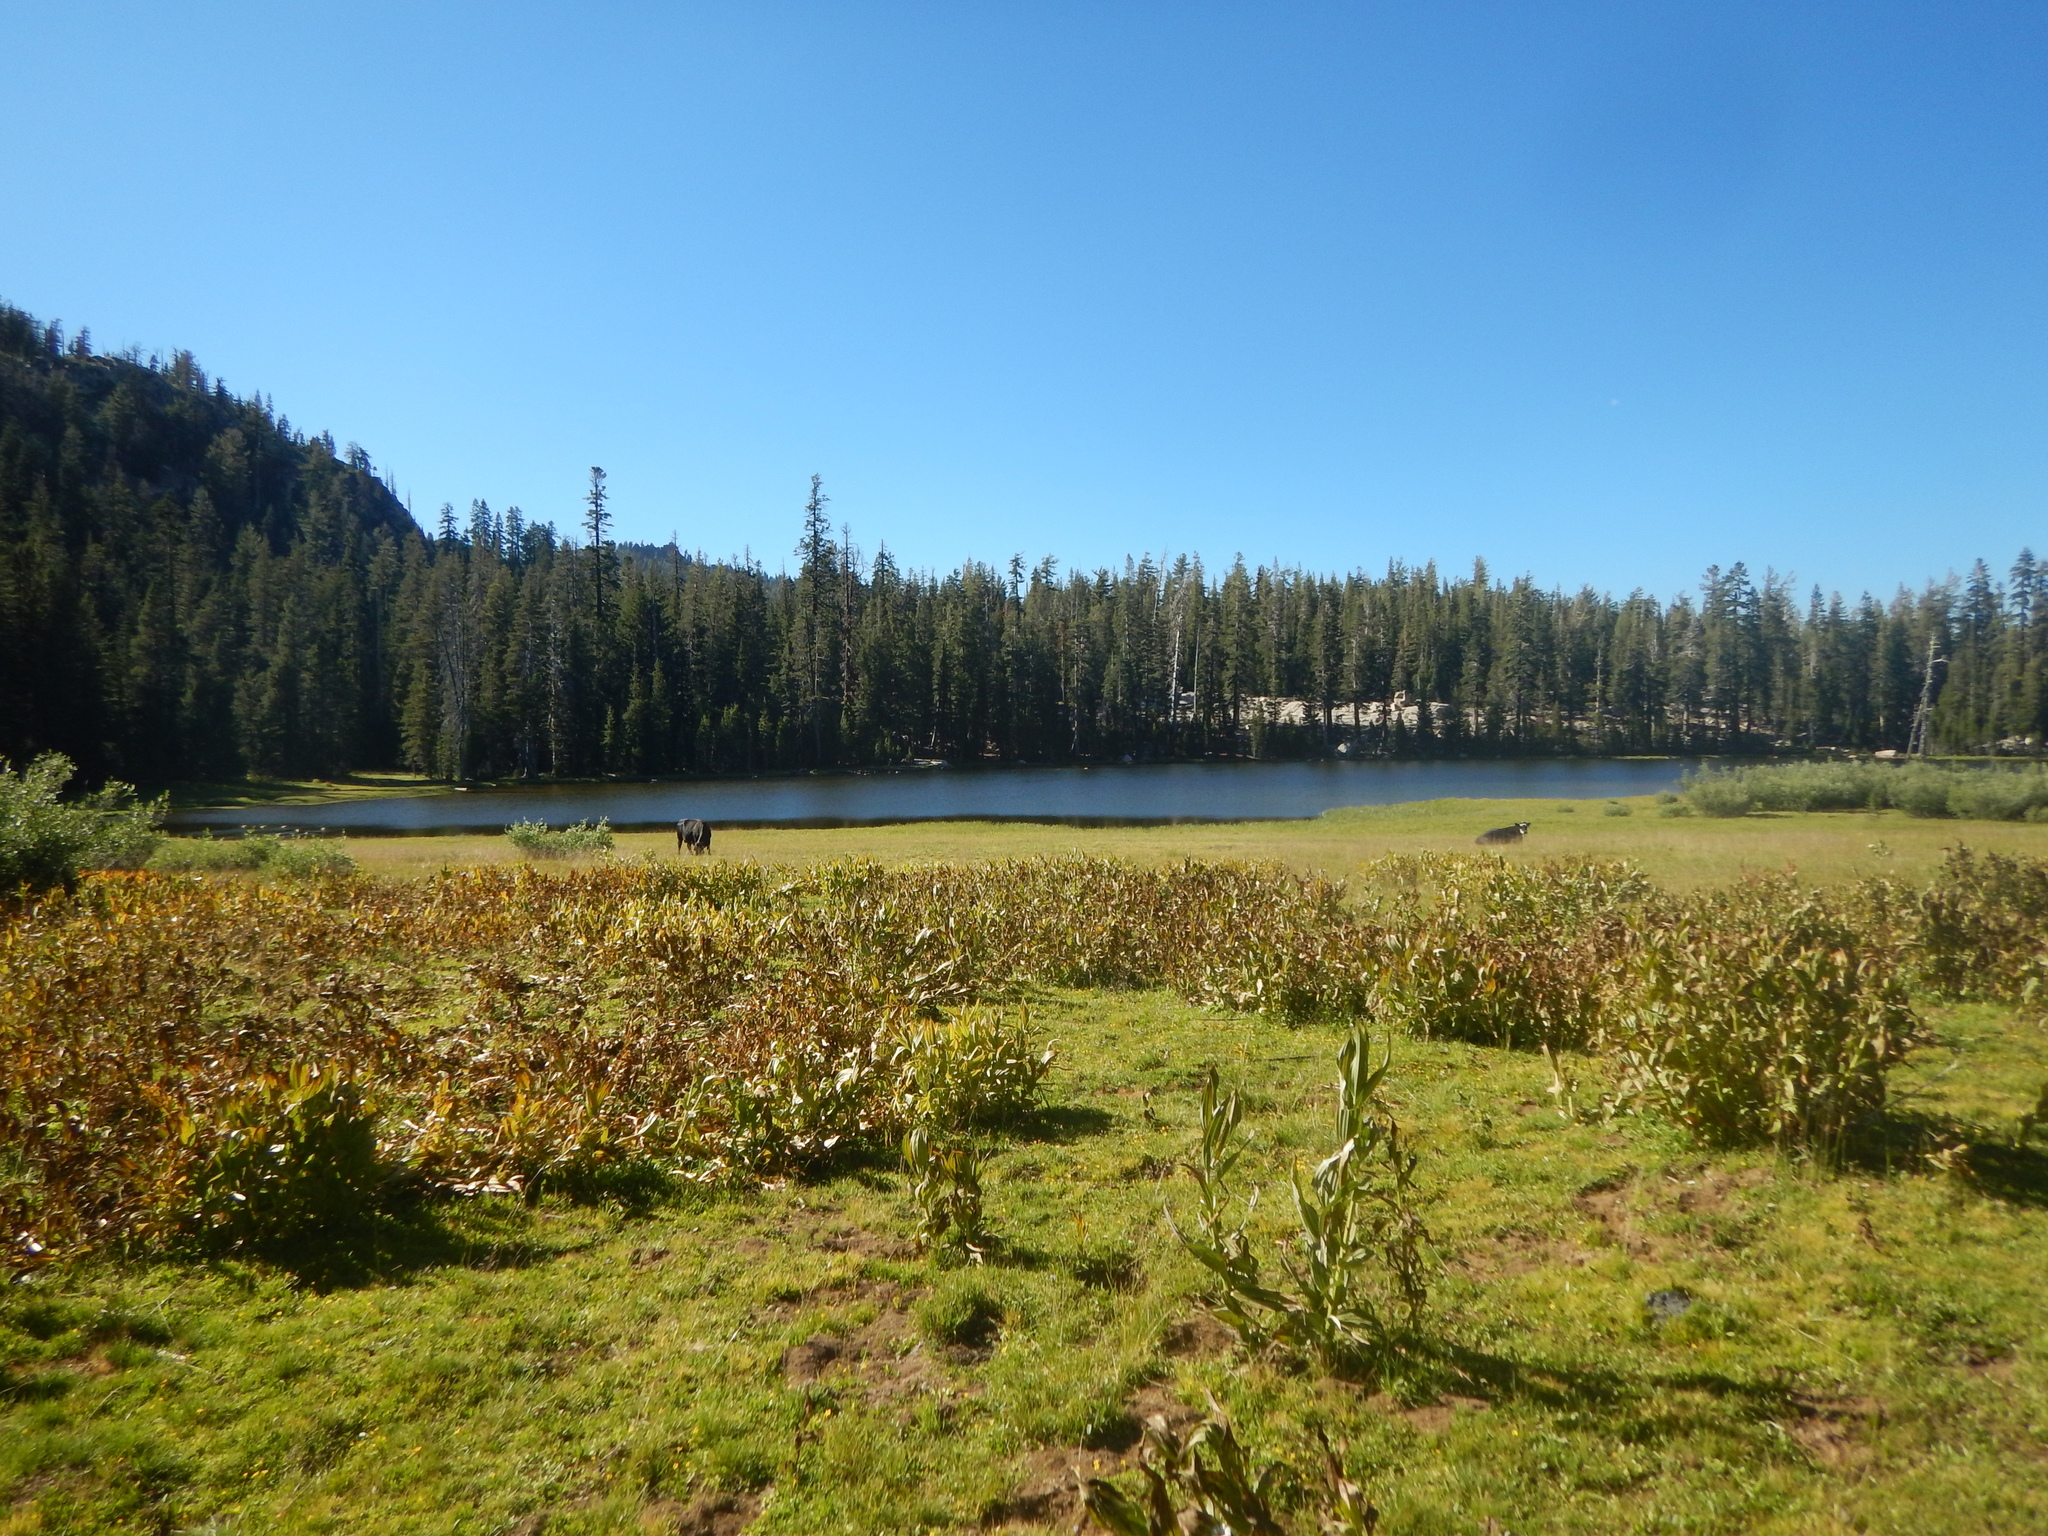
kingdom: Plantae
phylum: Tracheophyta
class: Liliopsida
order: Liliales
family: Melanthiaceae
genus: Veratrum
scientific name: Veratrum californicum
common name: California veratrum
